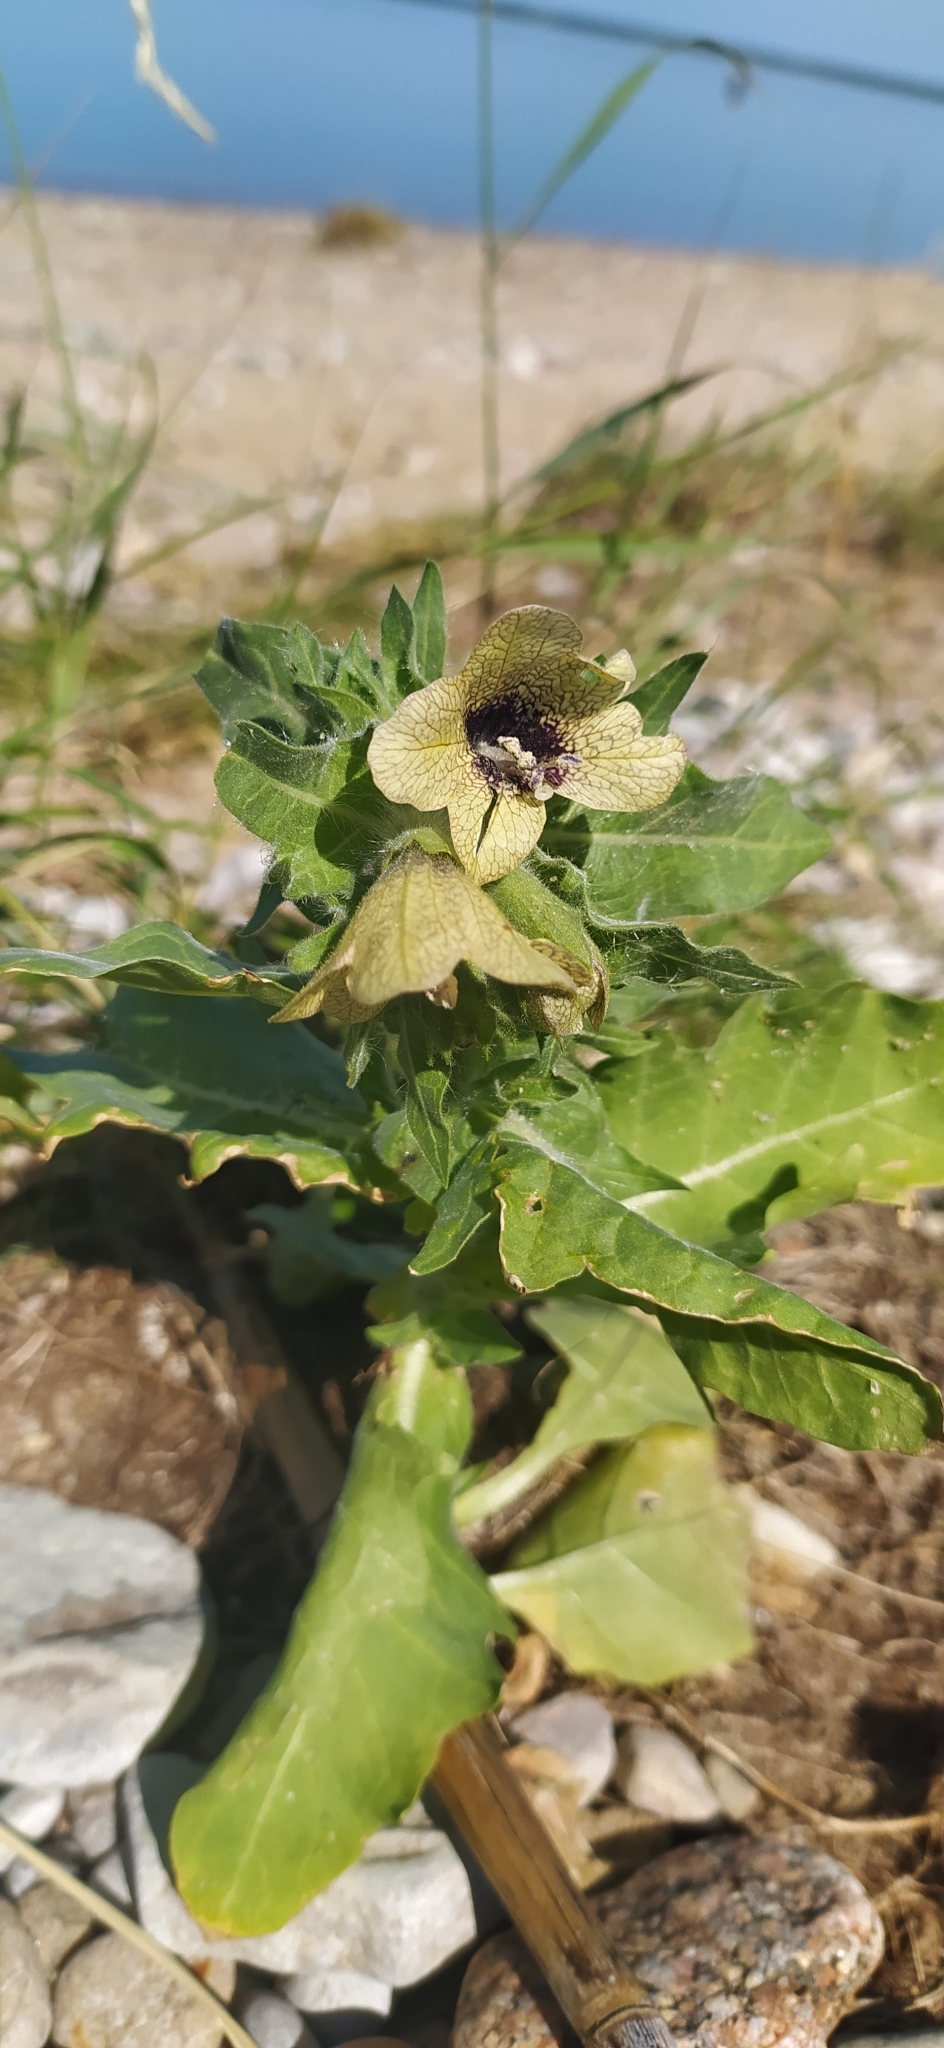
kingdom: Plantae
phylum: Tracheophyta
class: Magnoliopsida
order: Solanales
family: Solanaceae
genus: Hyoscyamus
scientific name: Hyoscyamus niger
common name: Henbane
